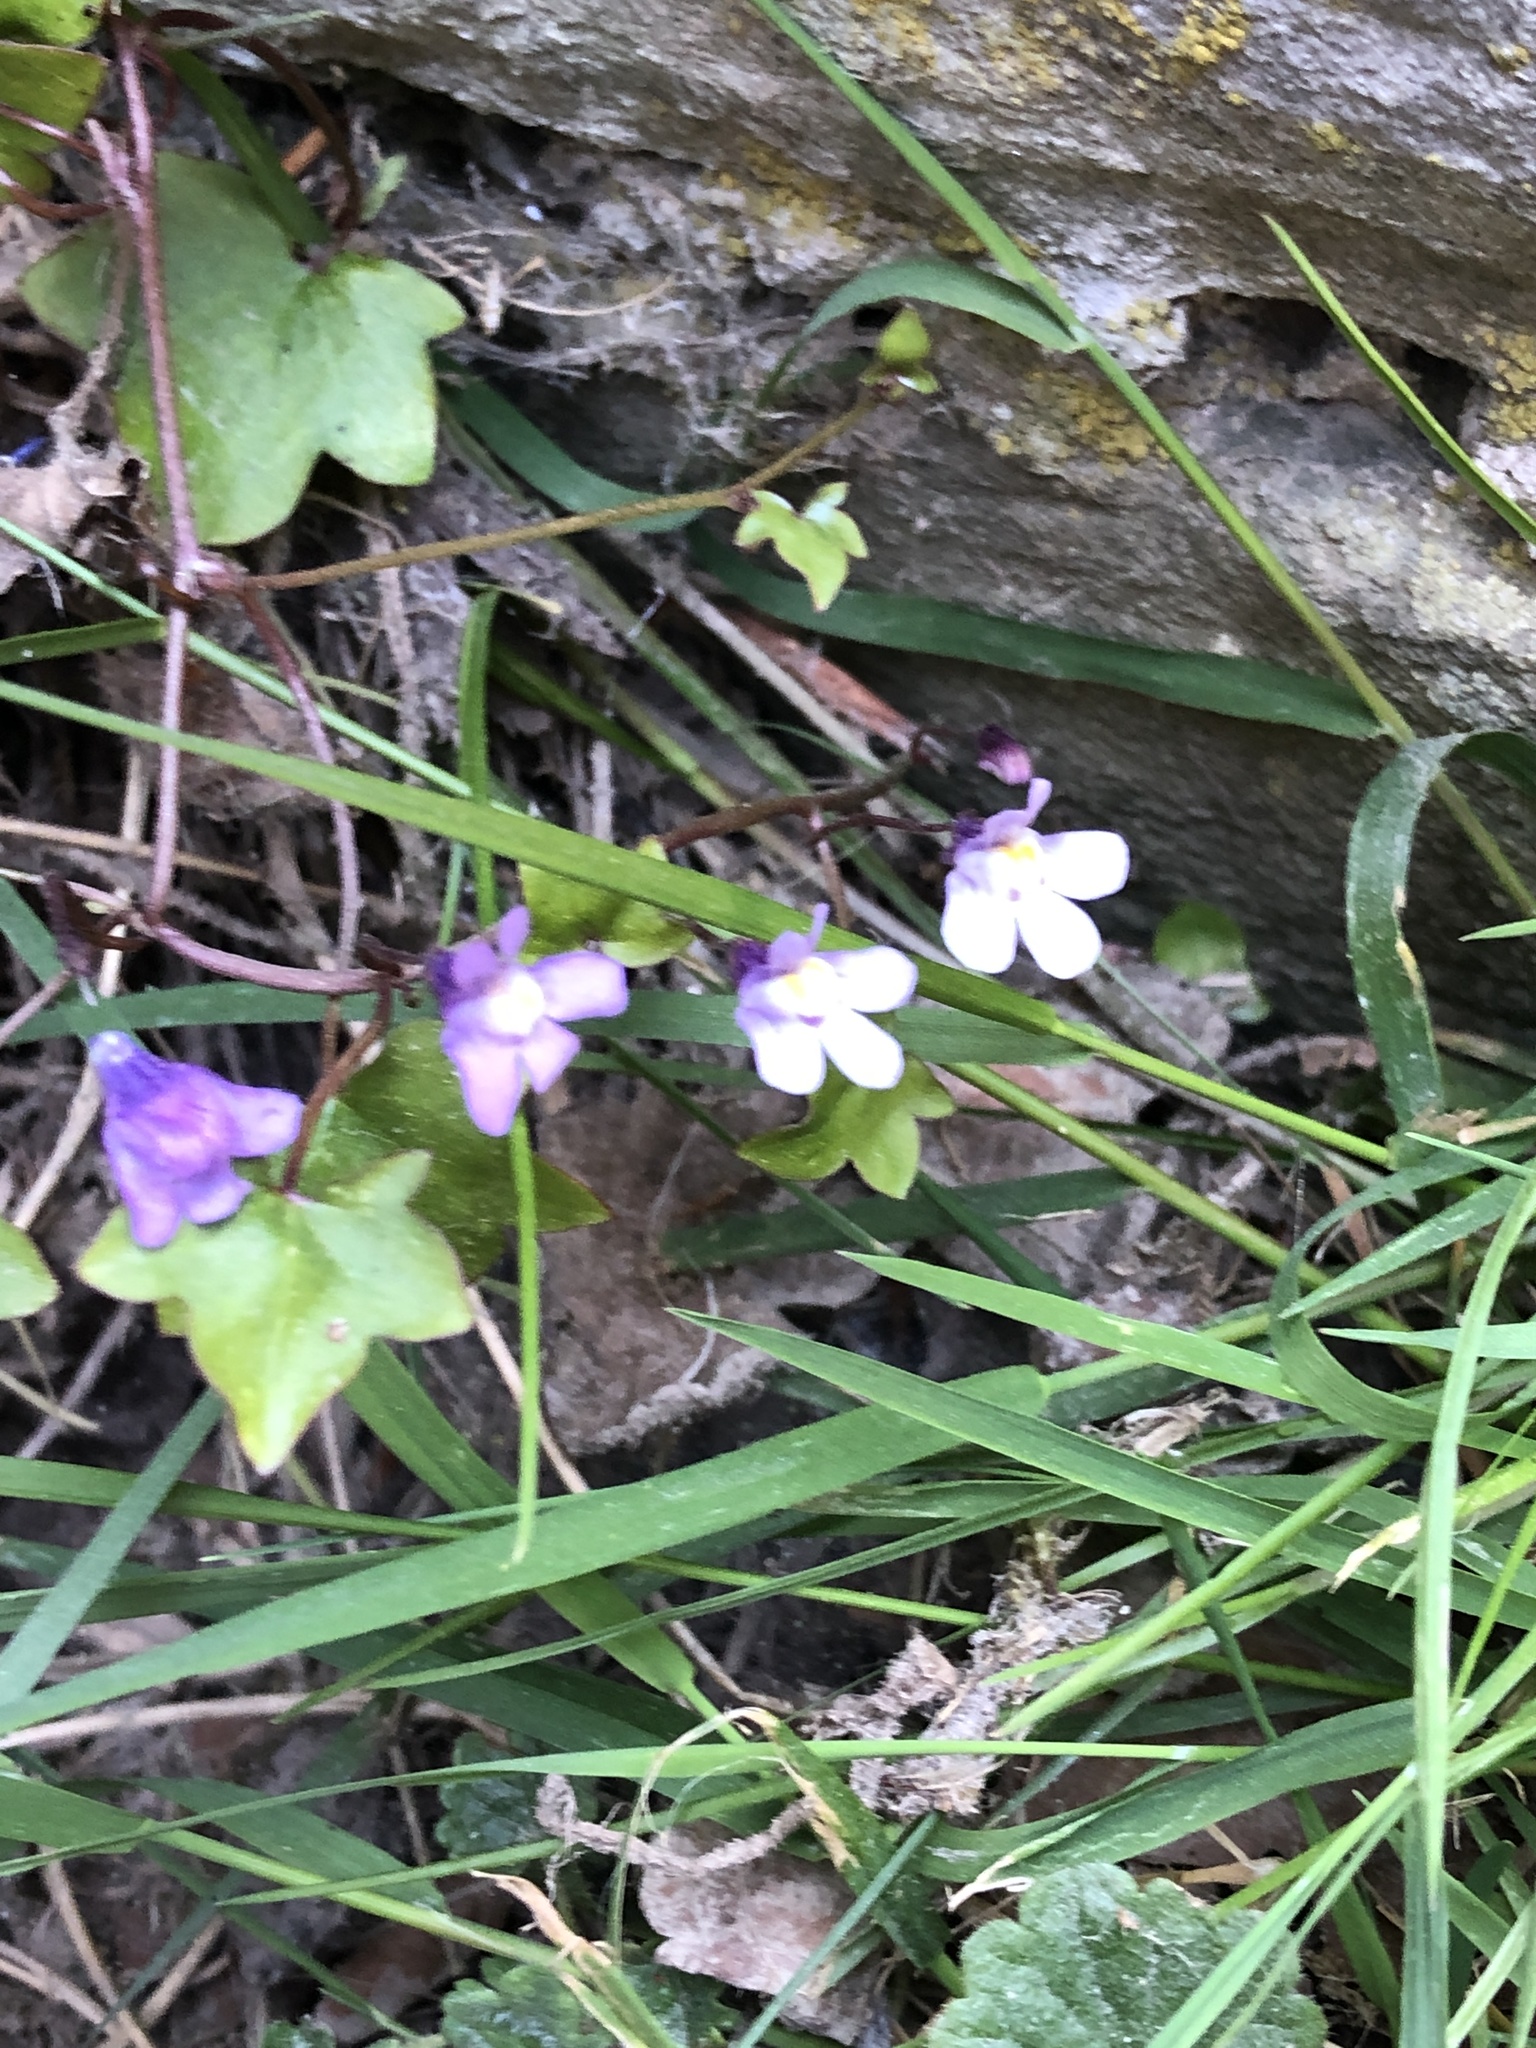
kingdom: Plantae
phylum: Tracheophyta
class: Magnoliopsida
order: Lamiales
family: Plantaginaceae
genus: Cymbalaria
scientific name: Cymbalaria muralis
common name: Ivy-leaved toadflax
